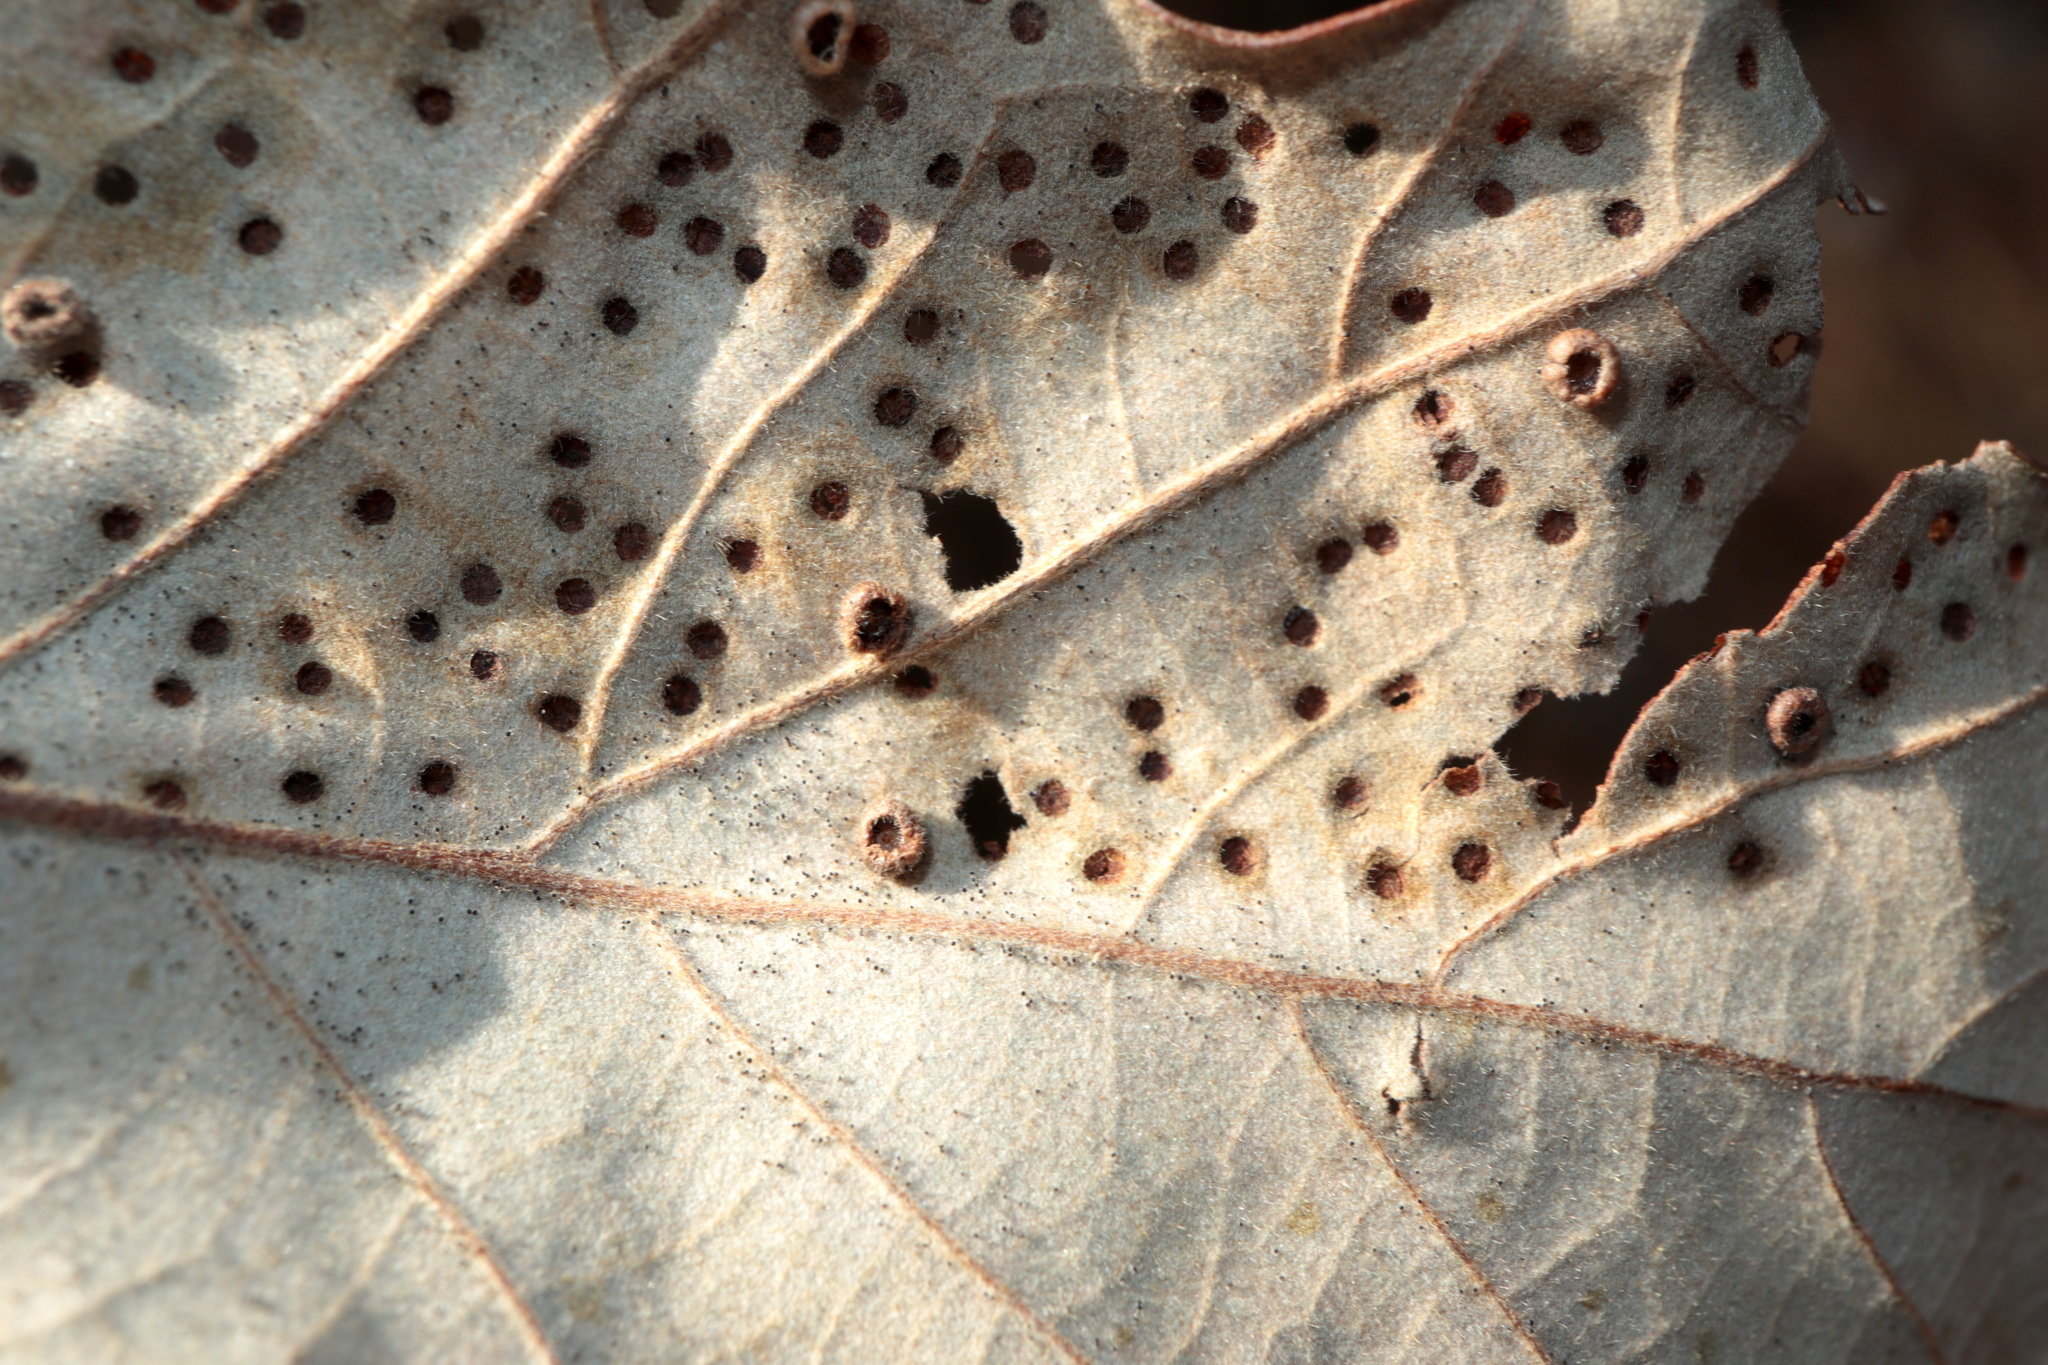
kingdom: Animalia
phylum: Arthropoda
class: Insecta
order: Hymenoptera
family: Cynipidae
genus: Neuroterus
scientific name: Neuroterus
